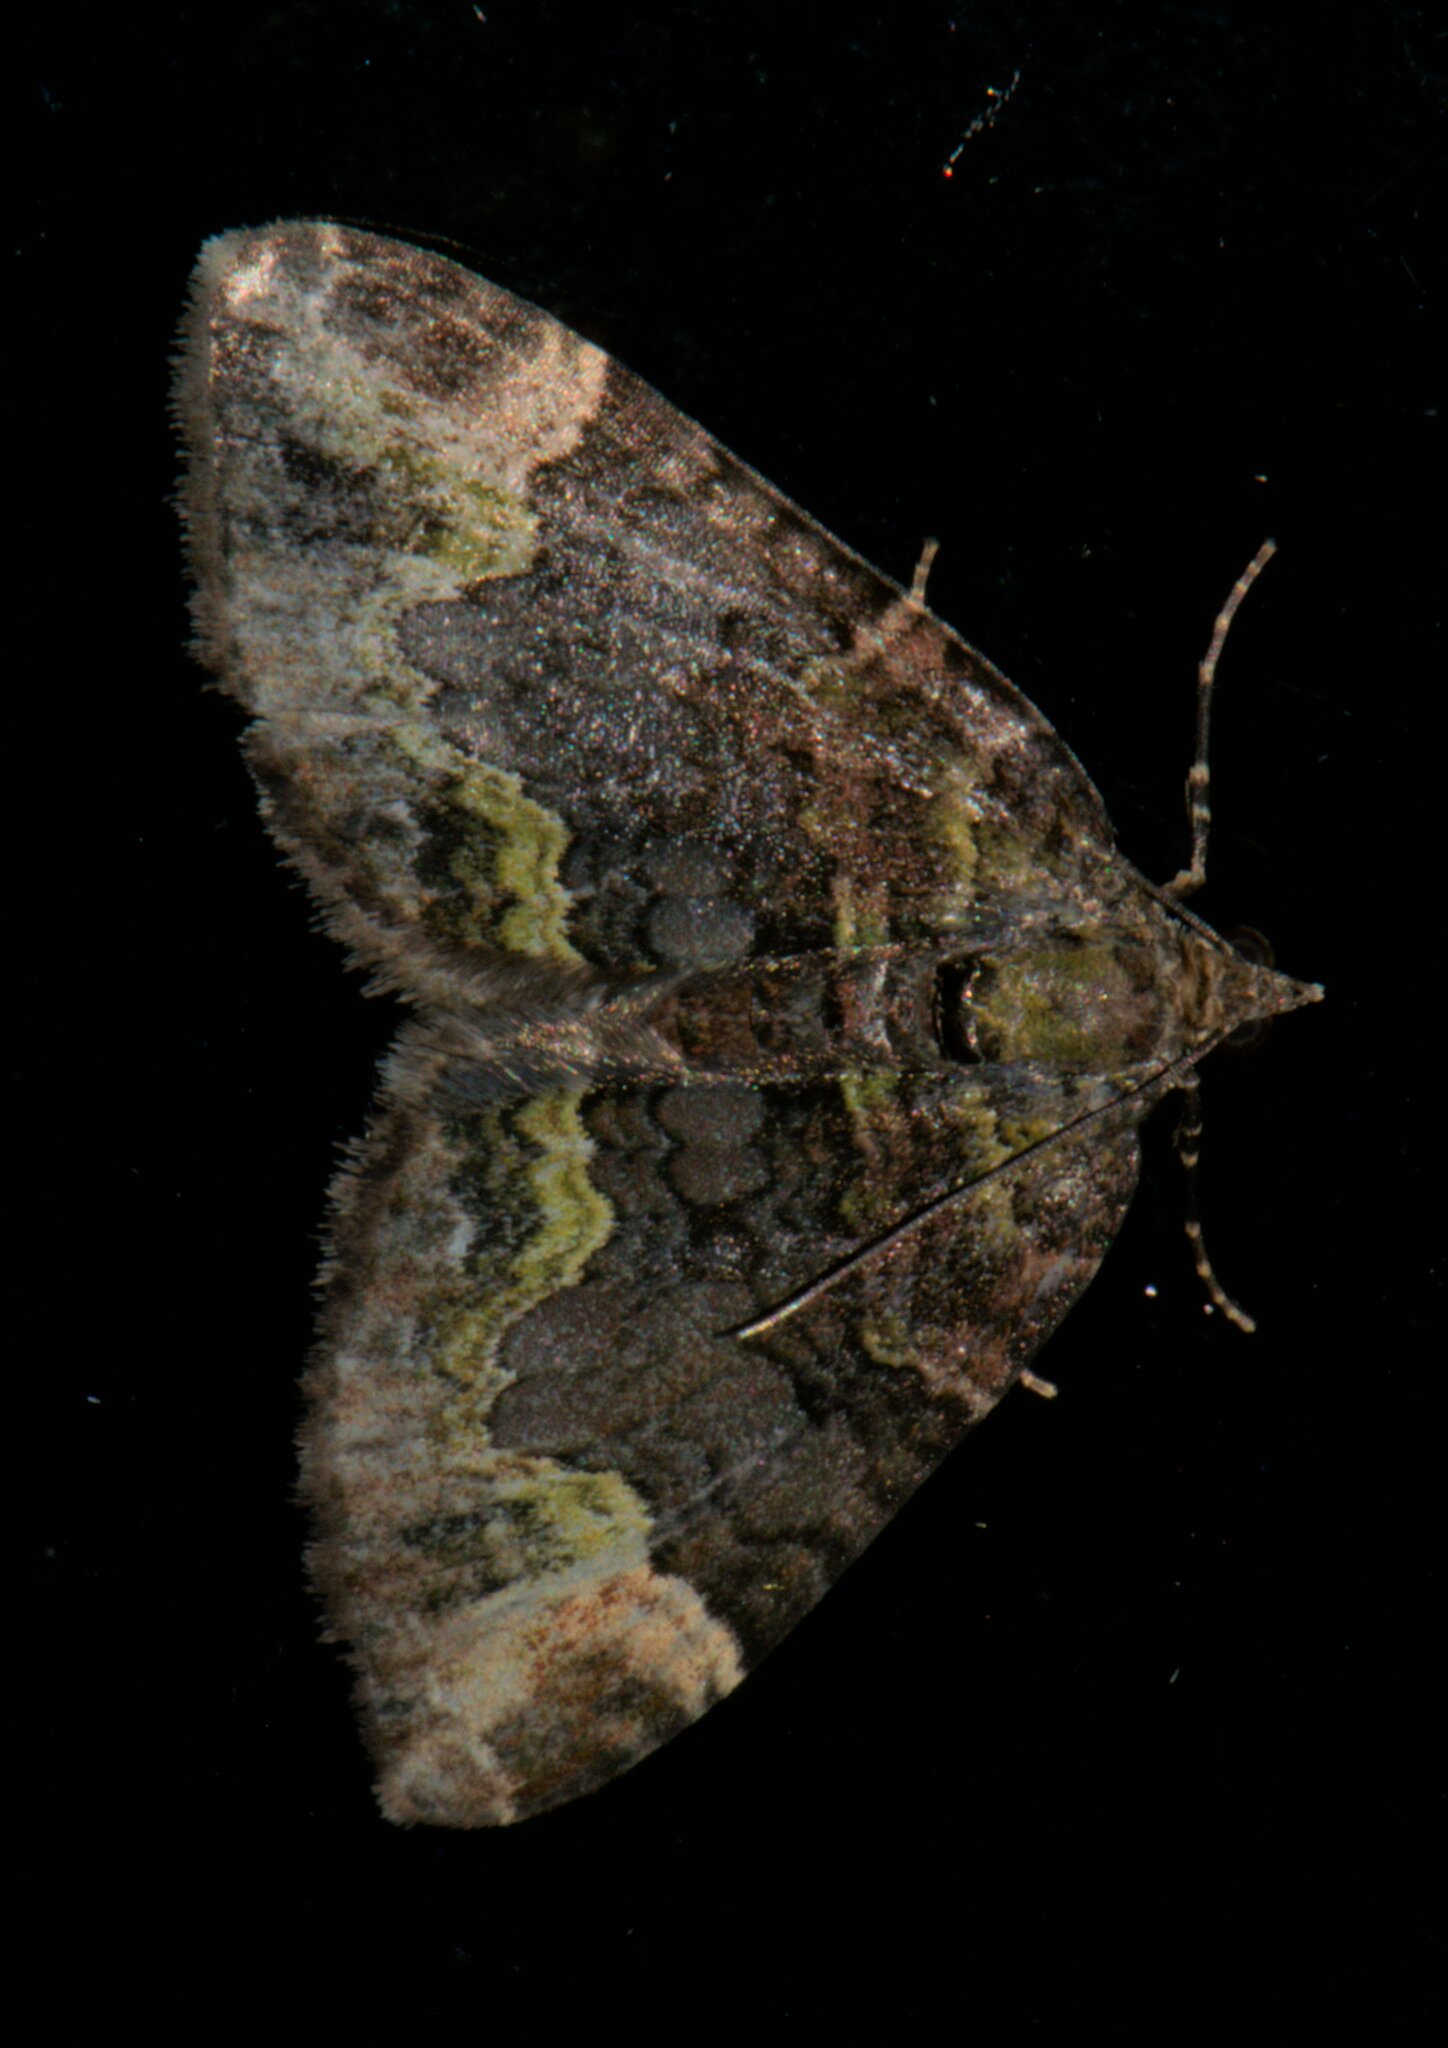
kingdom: Animalia
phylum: Arthropoda
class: Insecta
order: Lepidoptera
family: Geometridae
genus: Xanthorhoe
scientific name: Xanthorhoe griseiviridis
